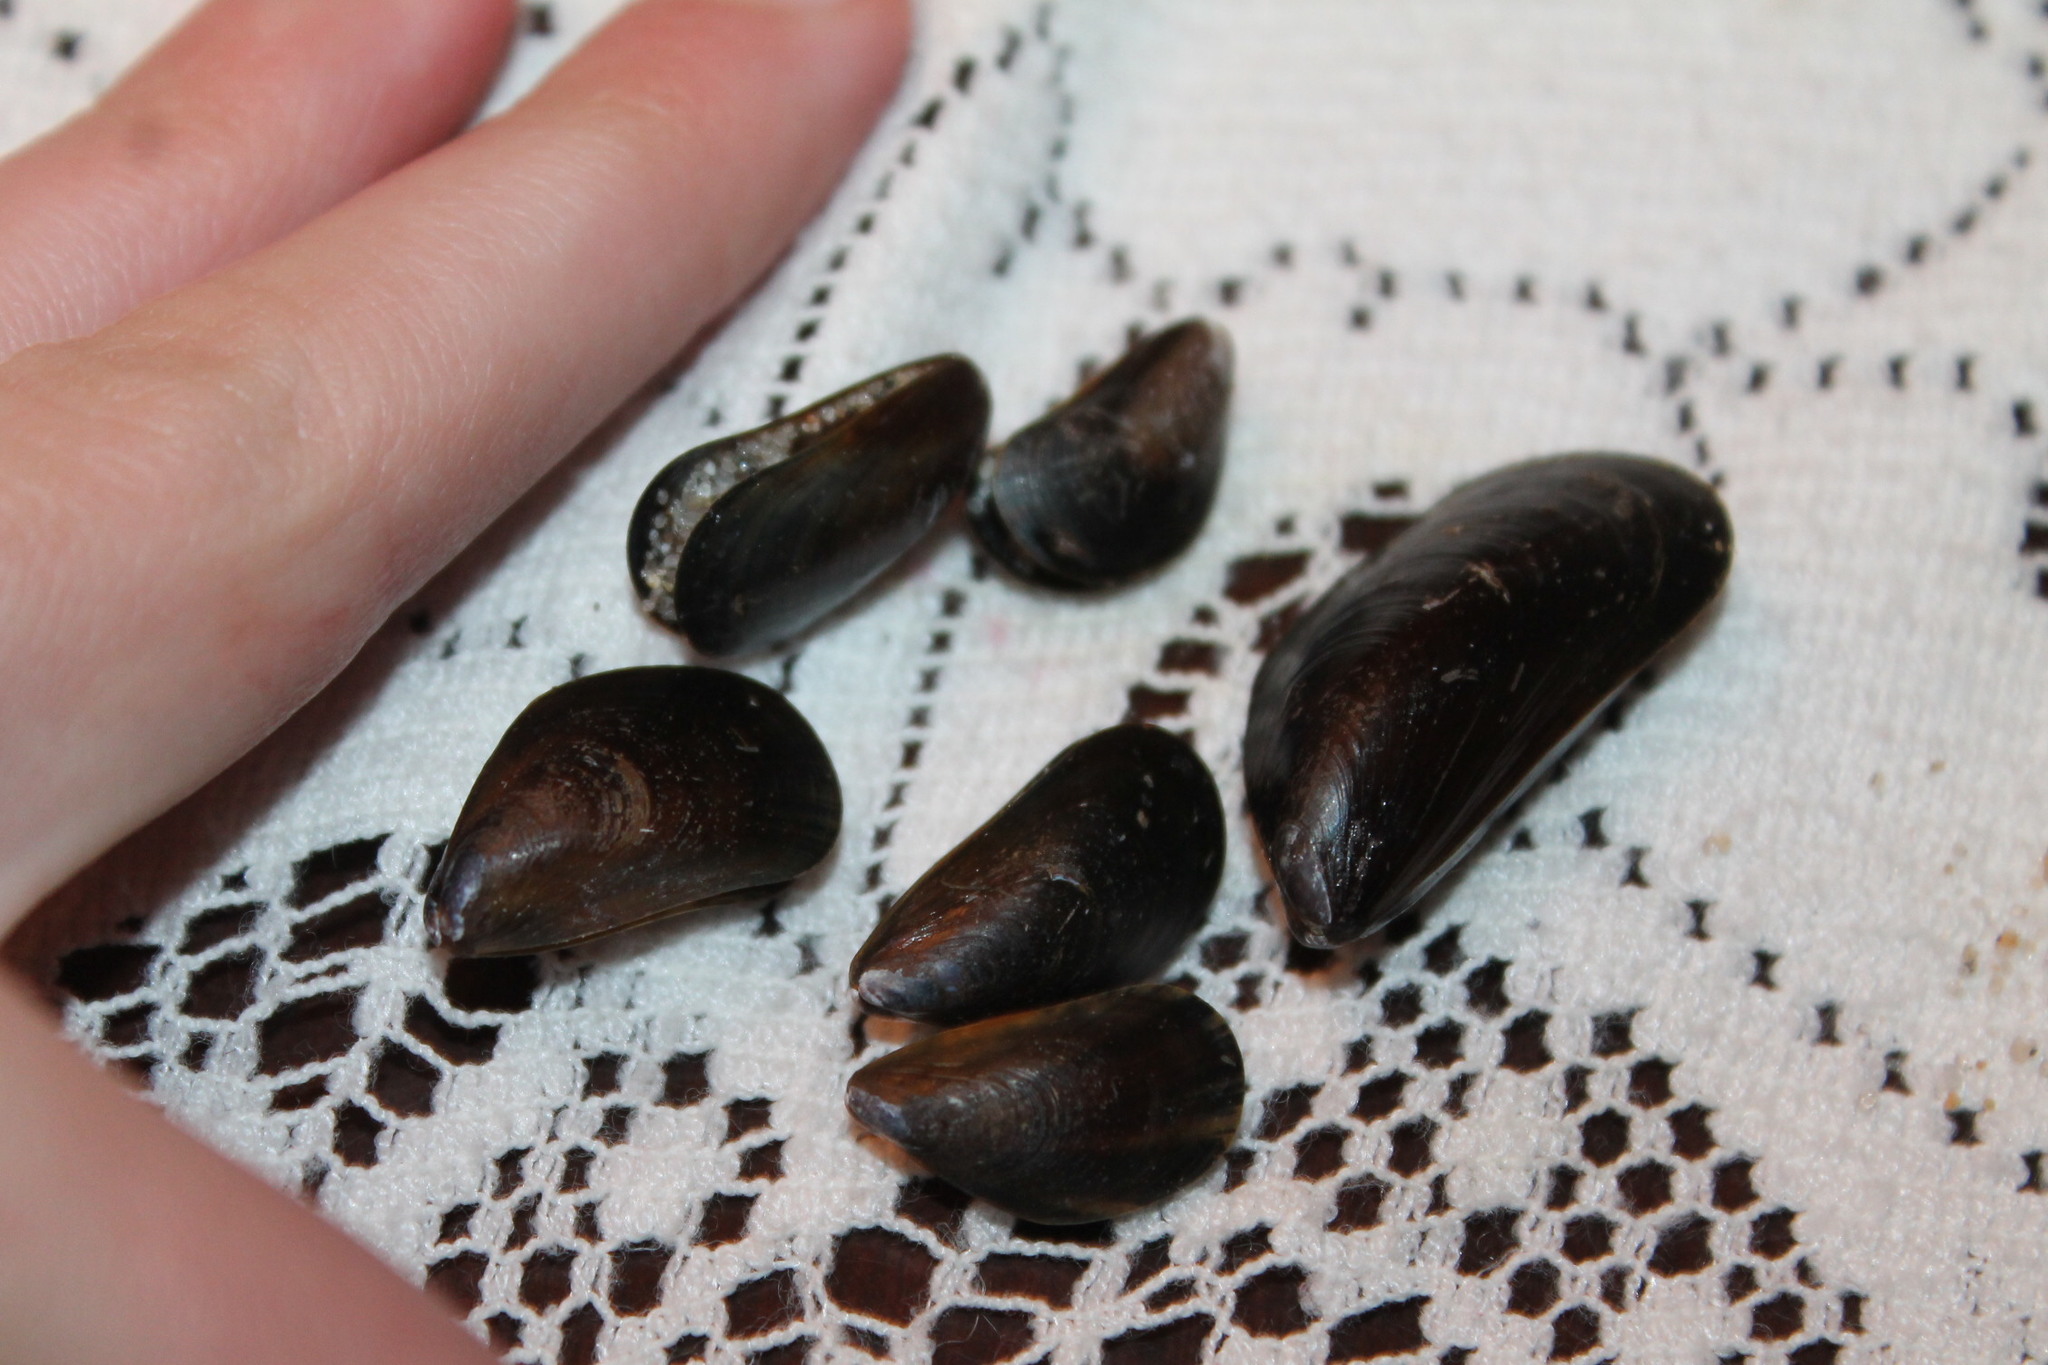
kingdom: Animalia
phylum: Mollusca
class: Bivalvia
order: Mytilida
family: Mytilidae
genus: Mytilus
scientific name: Mytilus edulis
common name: Blue mussel
